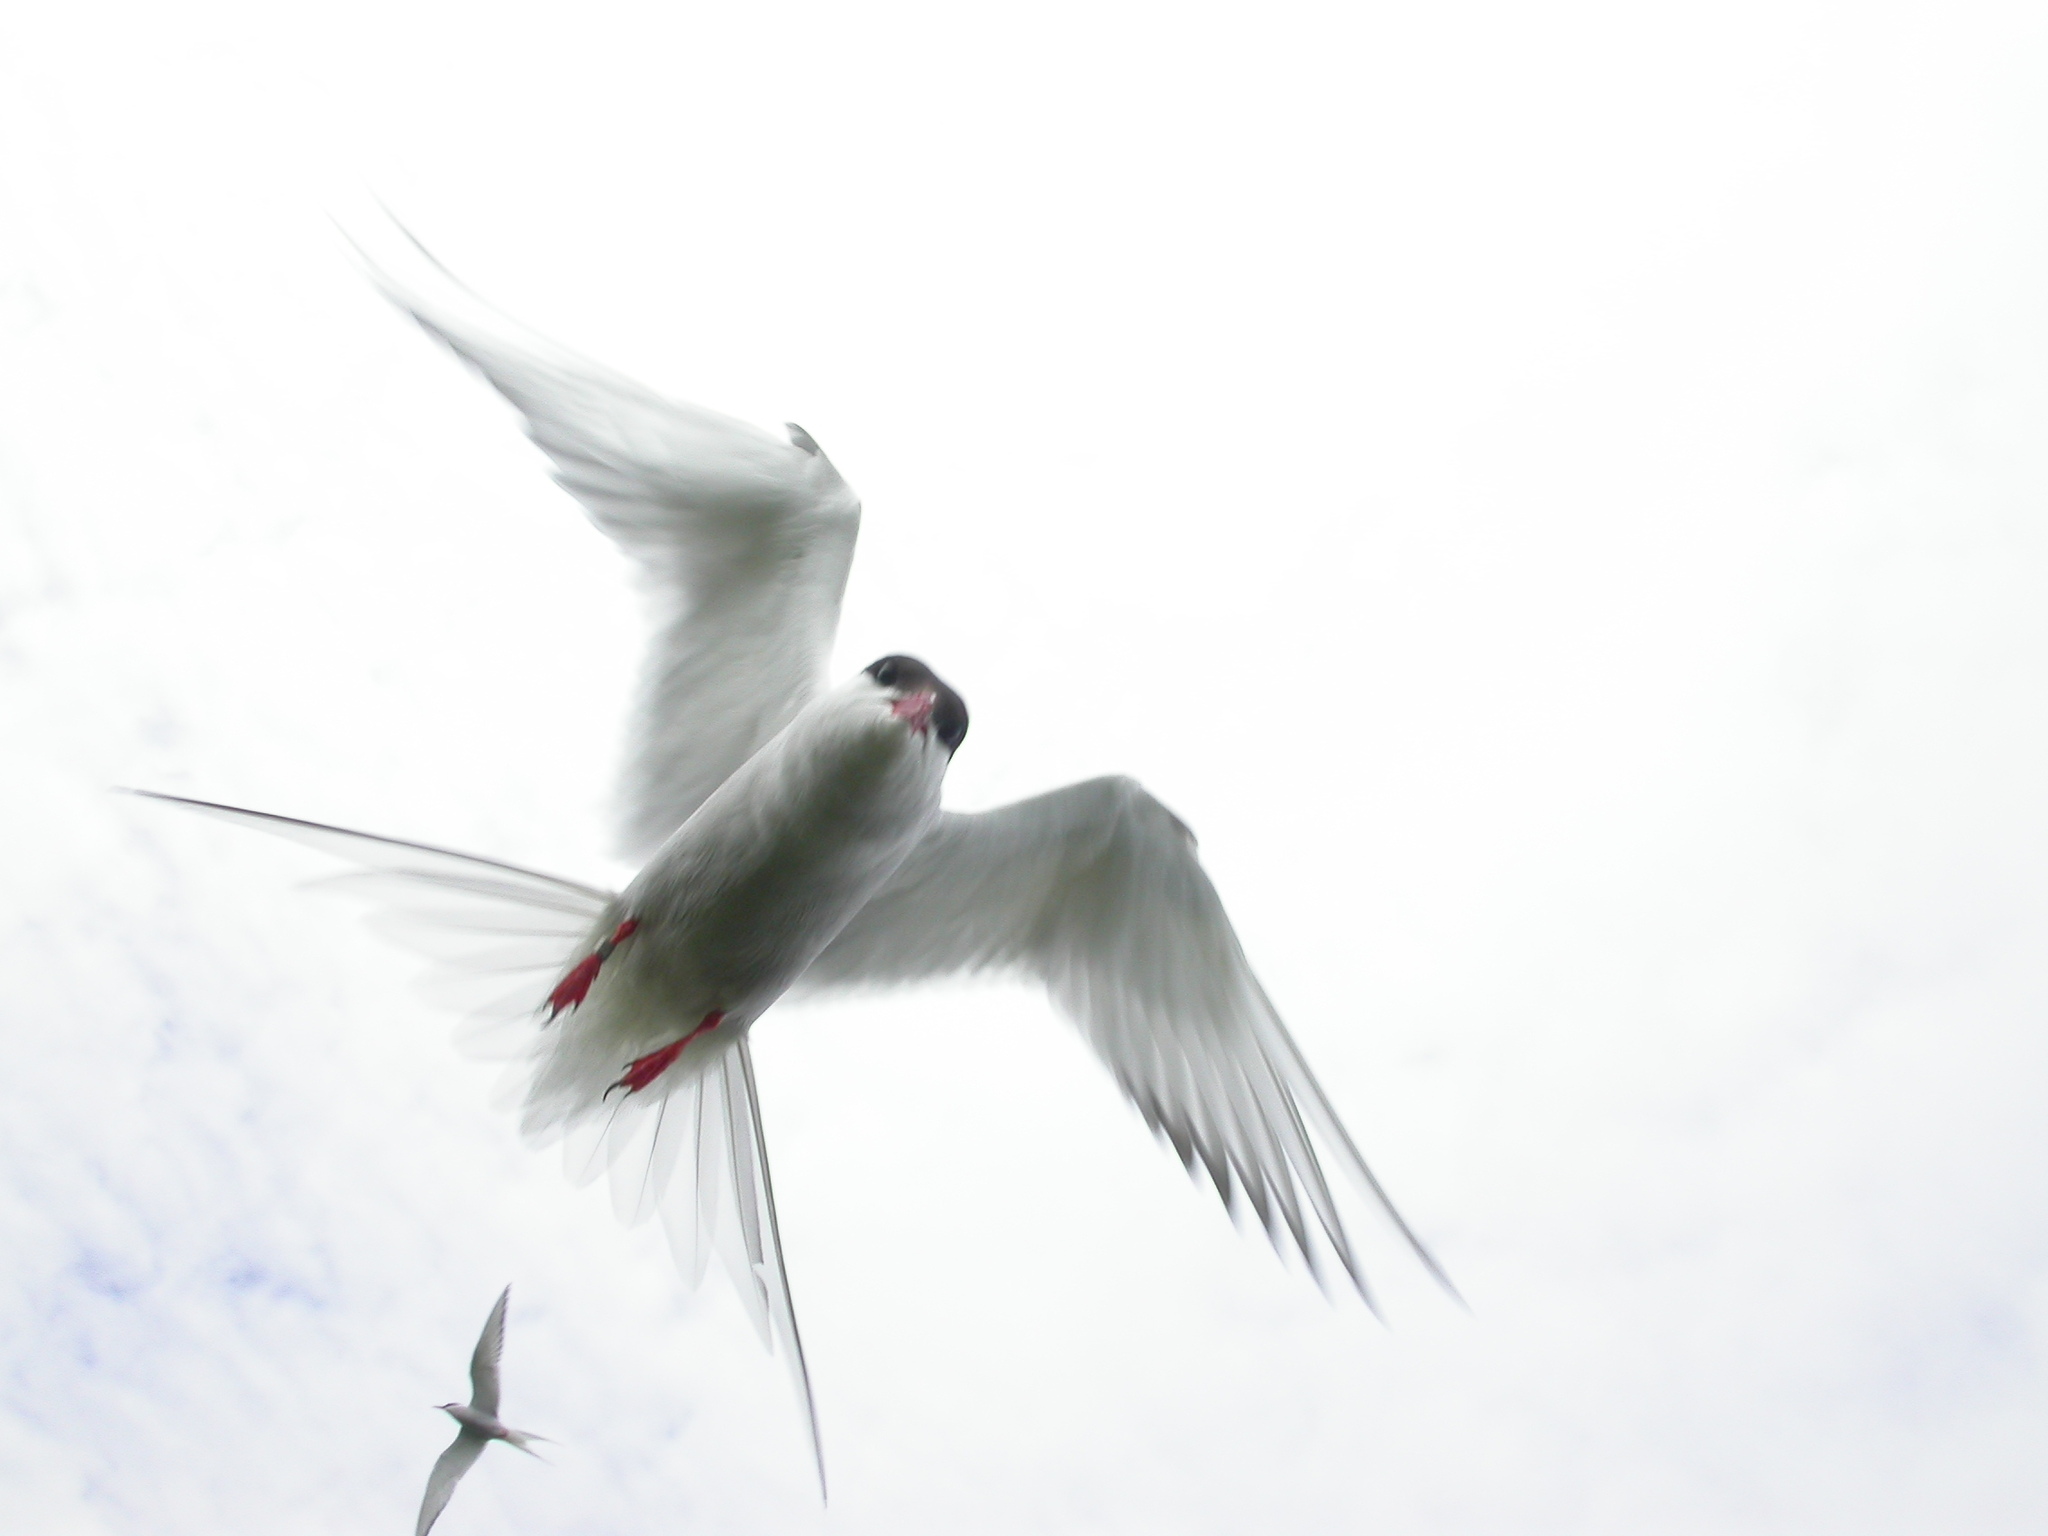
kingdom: Animalia
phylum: Chordata
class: Aves
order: Charadriiformes
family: Laridae
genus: Sterna
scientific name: Sterna paradisaea
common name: Arctic tern
